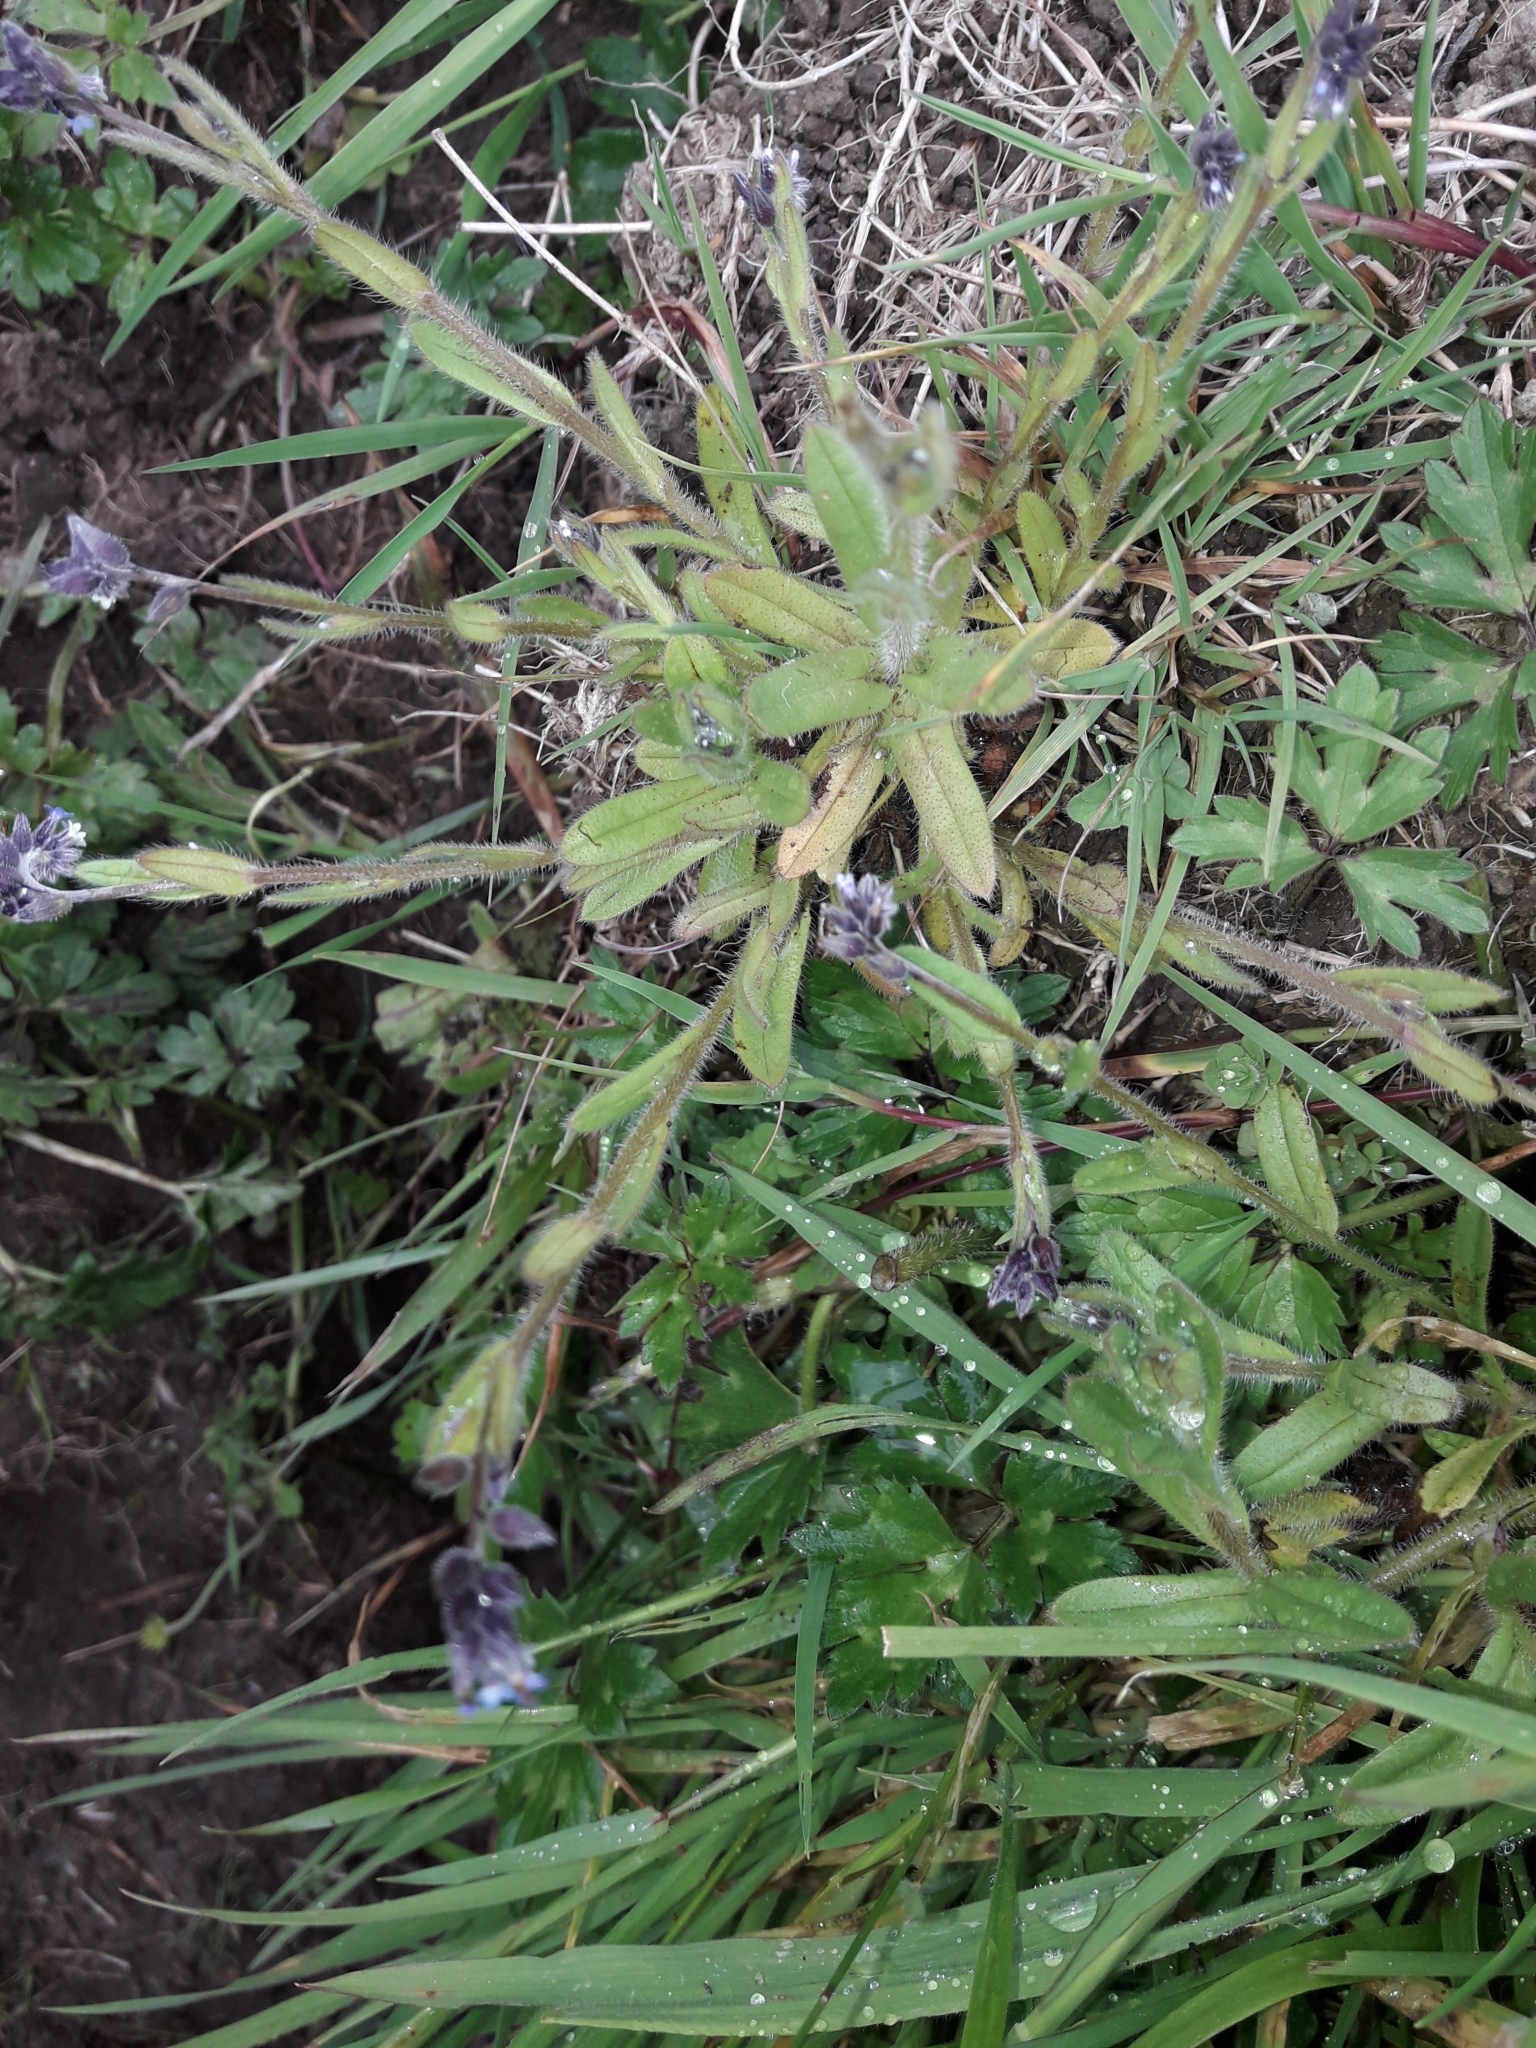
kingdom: Plantae
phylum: Tracheophyta
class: Magnoliopsida
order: Boraginales
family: Boraginaceae
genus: Myosotis
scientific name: Myosotis discolor
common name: Changing forget-me-not
